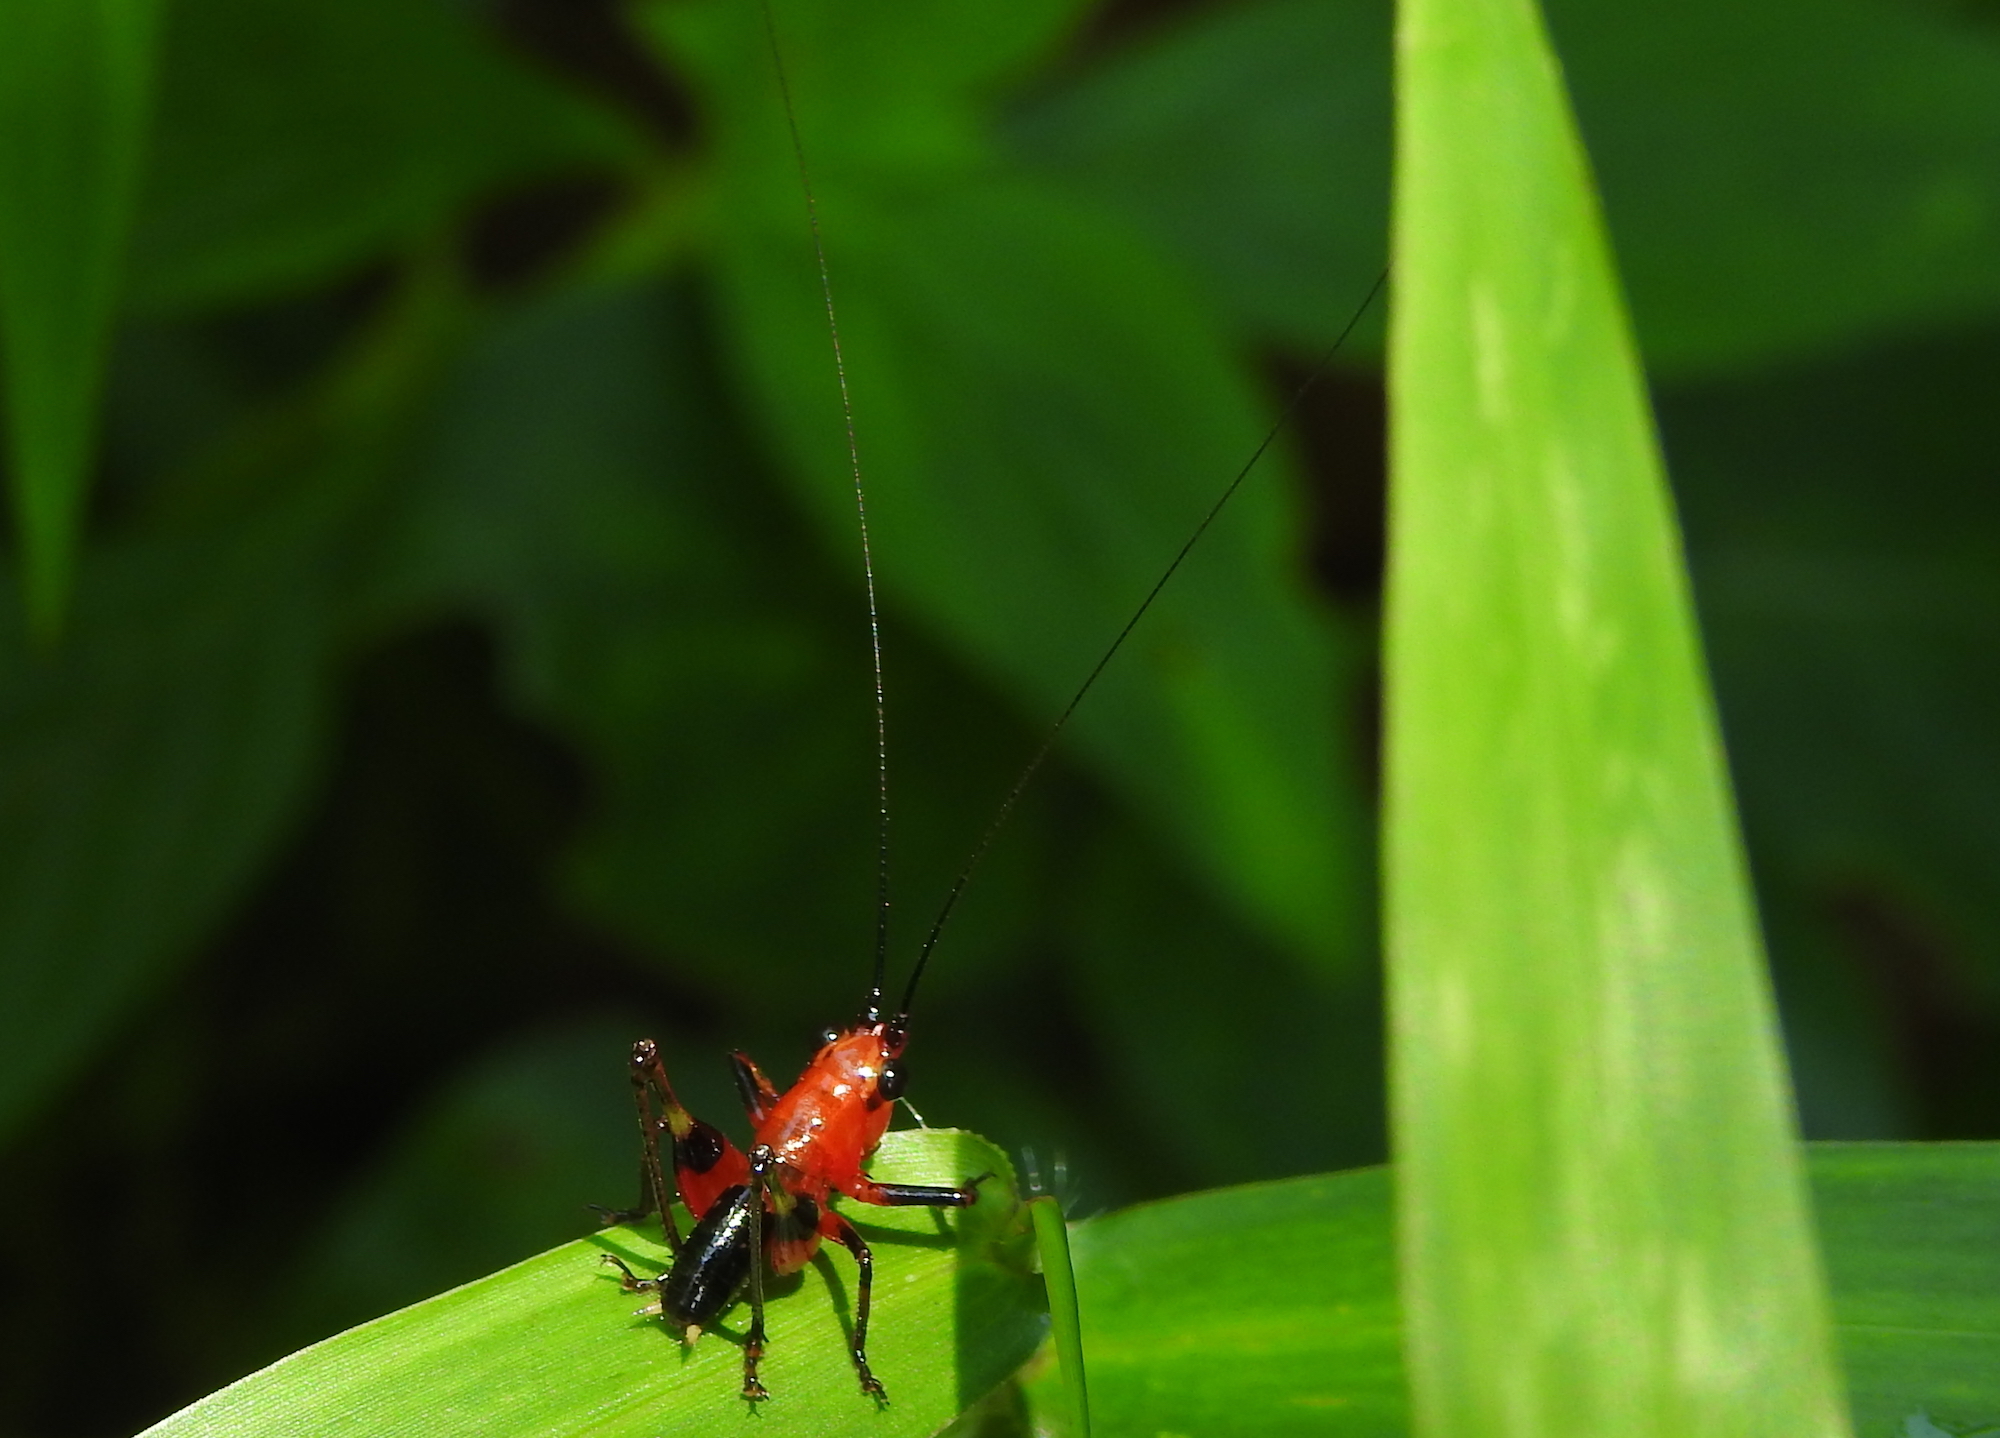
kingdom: Animalia
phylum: Arthropoda
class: Insecta
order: Orthoptera
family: Tettigoniidae
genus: Conocephalus
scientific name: Conocephalus melaenus
